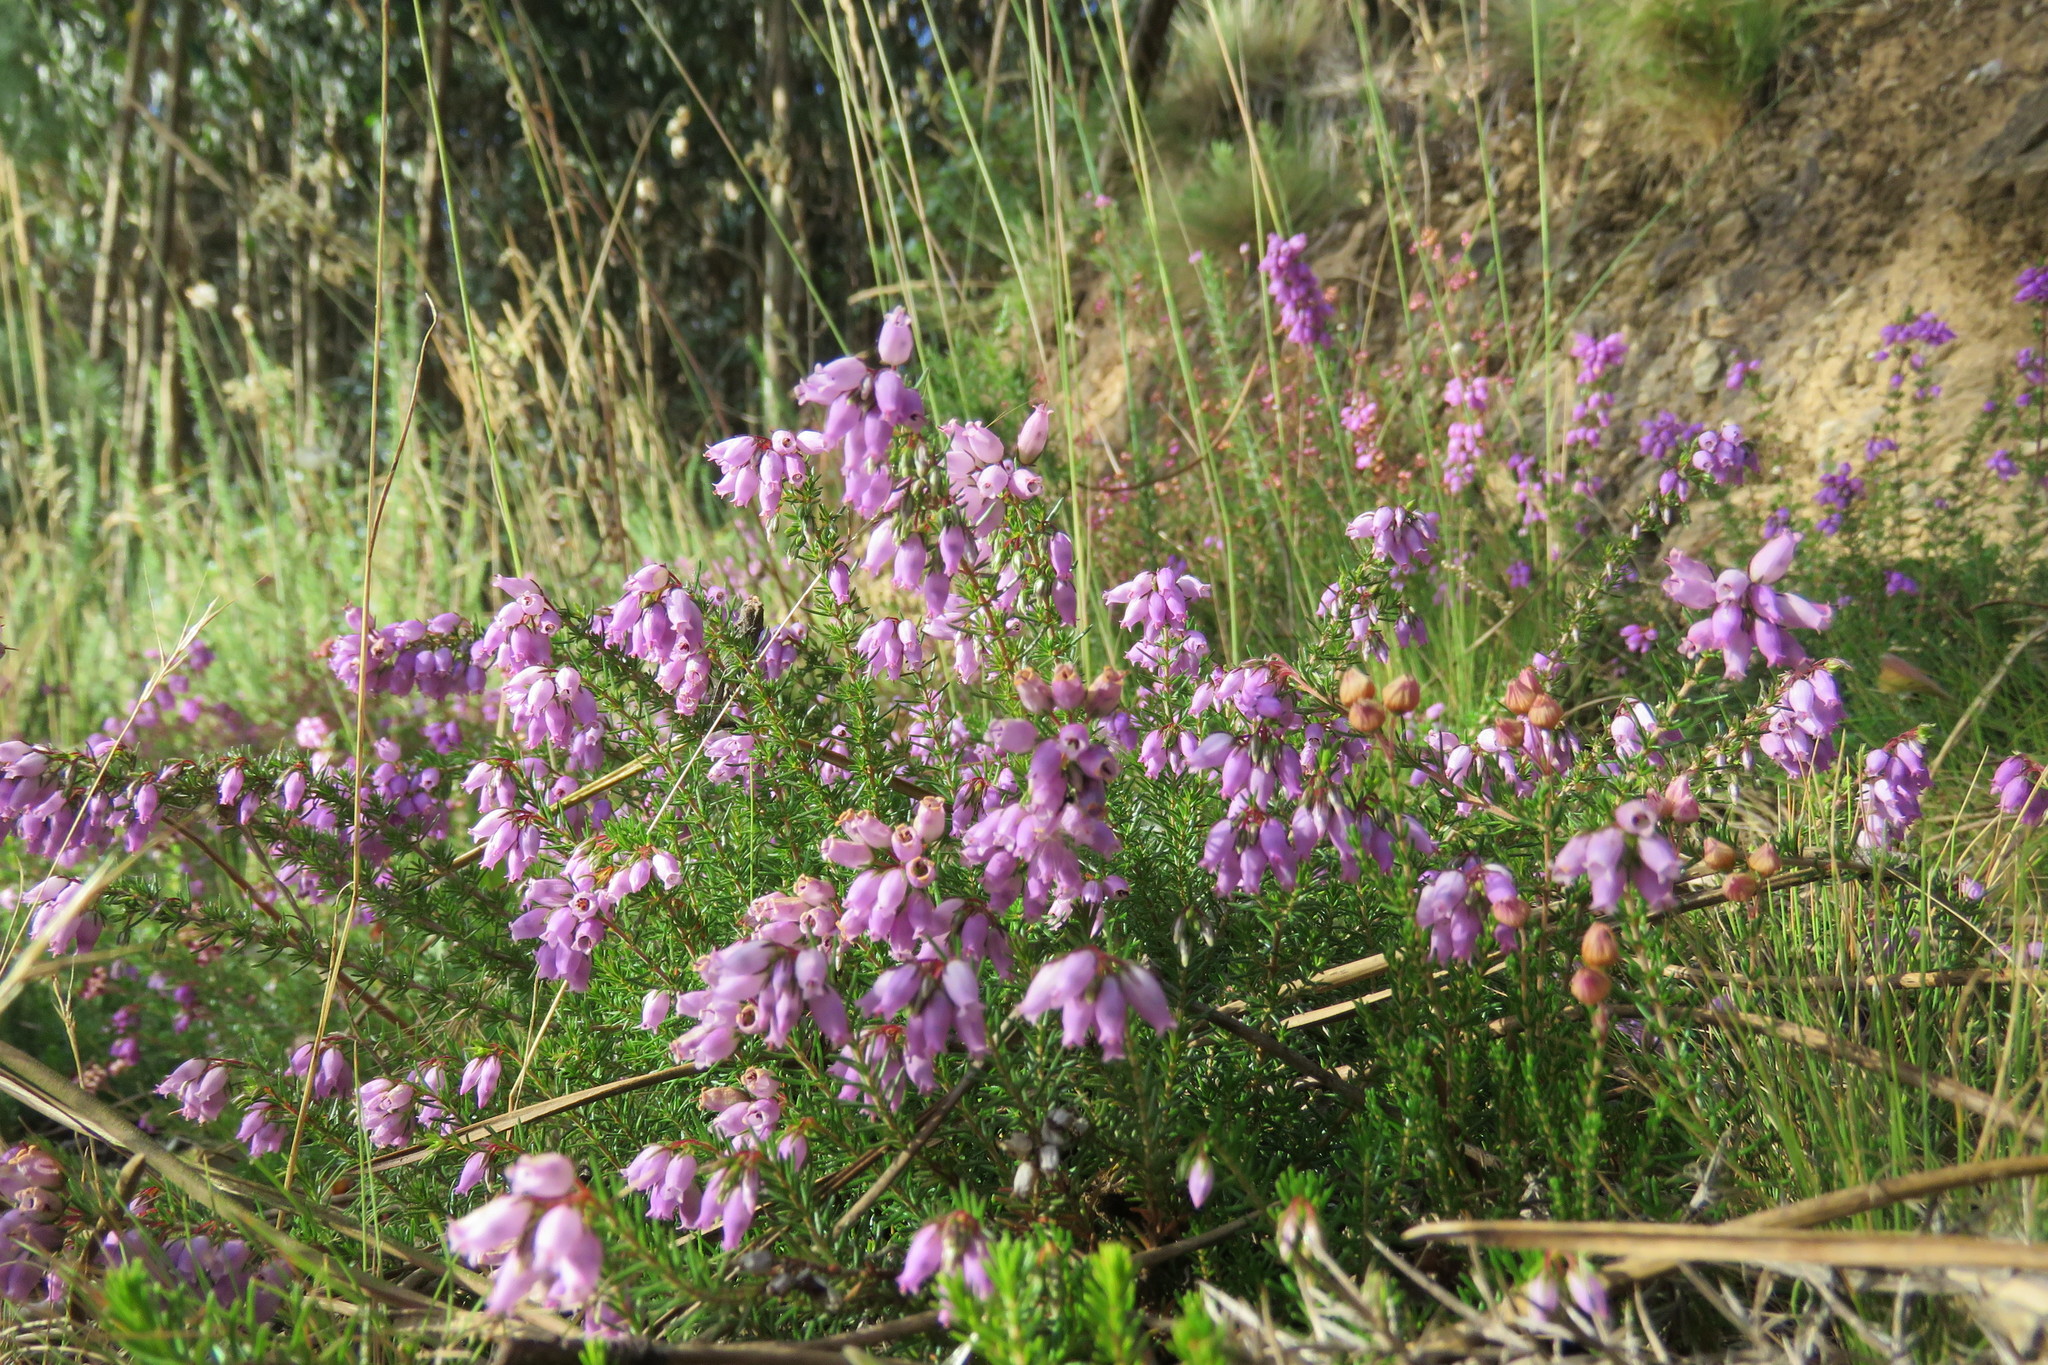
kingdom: Plantae
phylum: Tracheophyta
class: Magnoliopsida
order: Ericales
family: Ericaceae
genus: Erica
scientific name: Erica cinerea
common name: Bell heather
